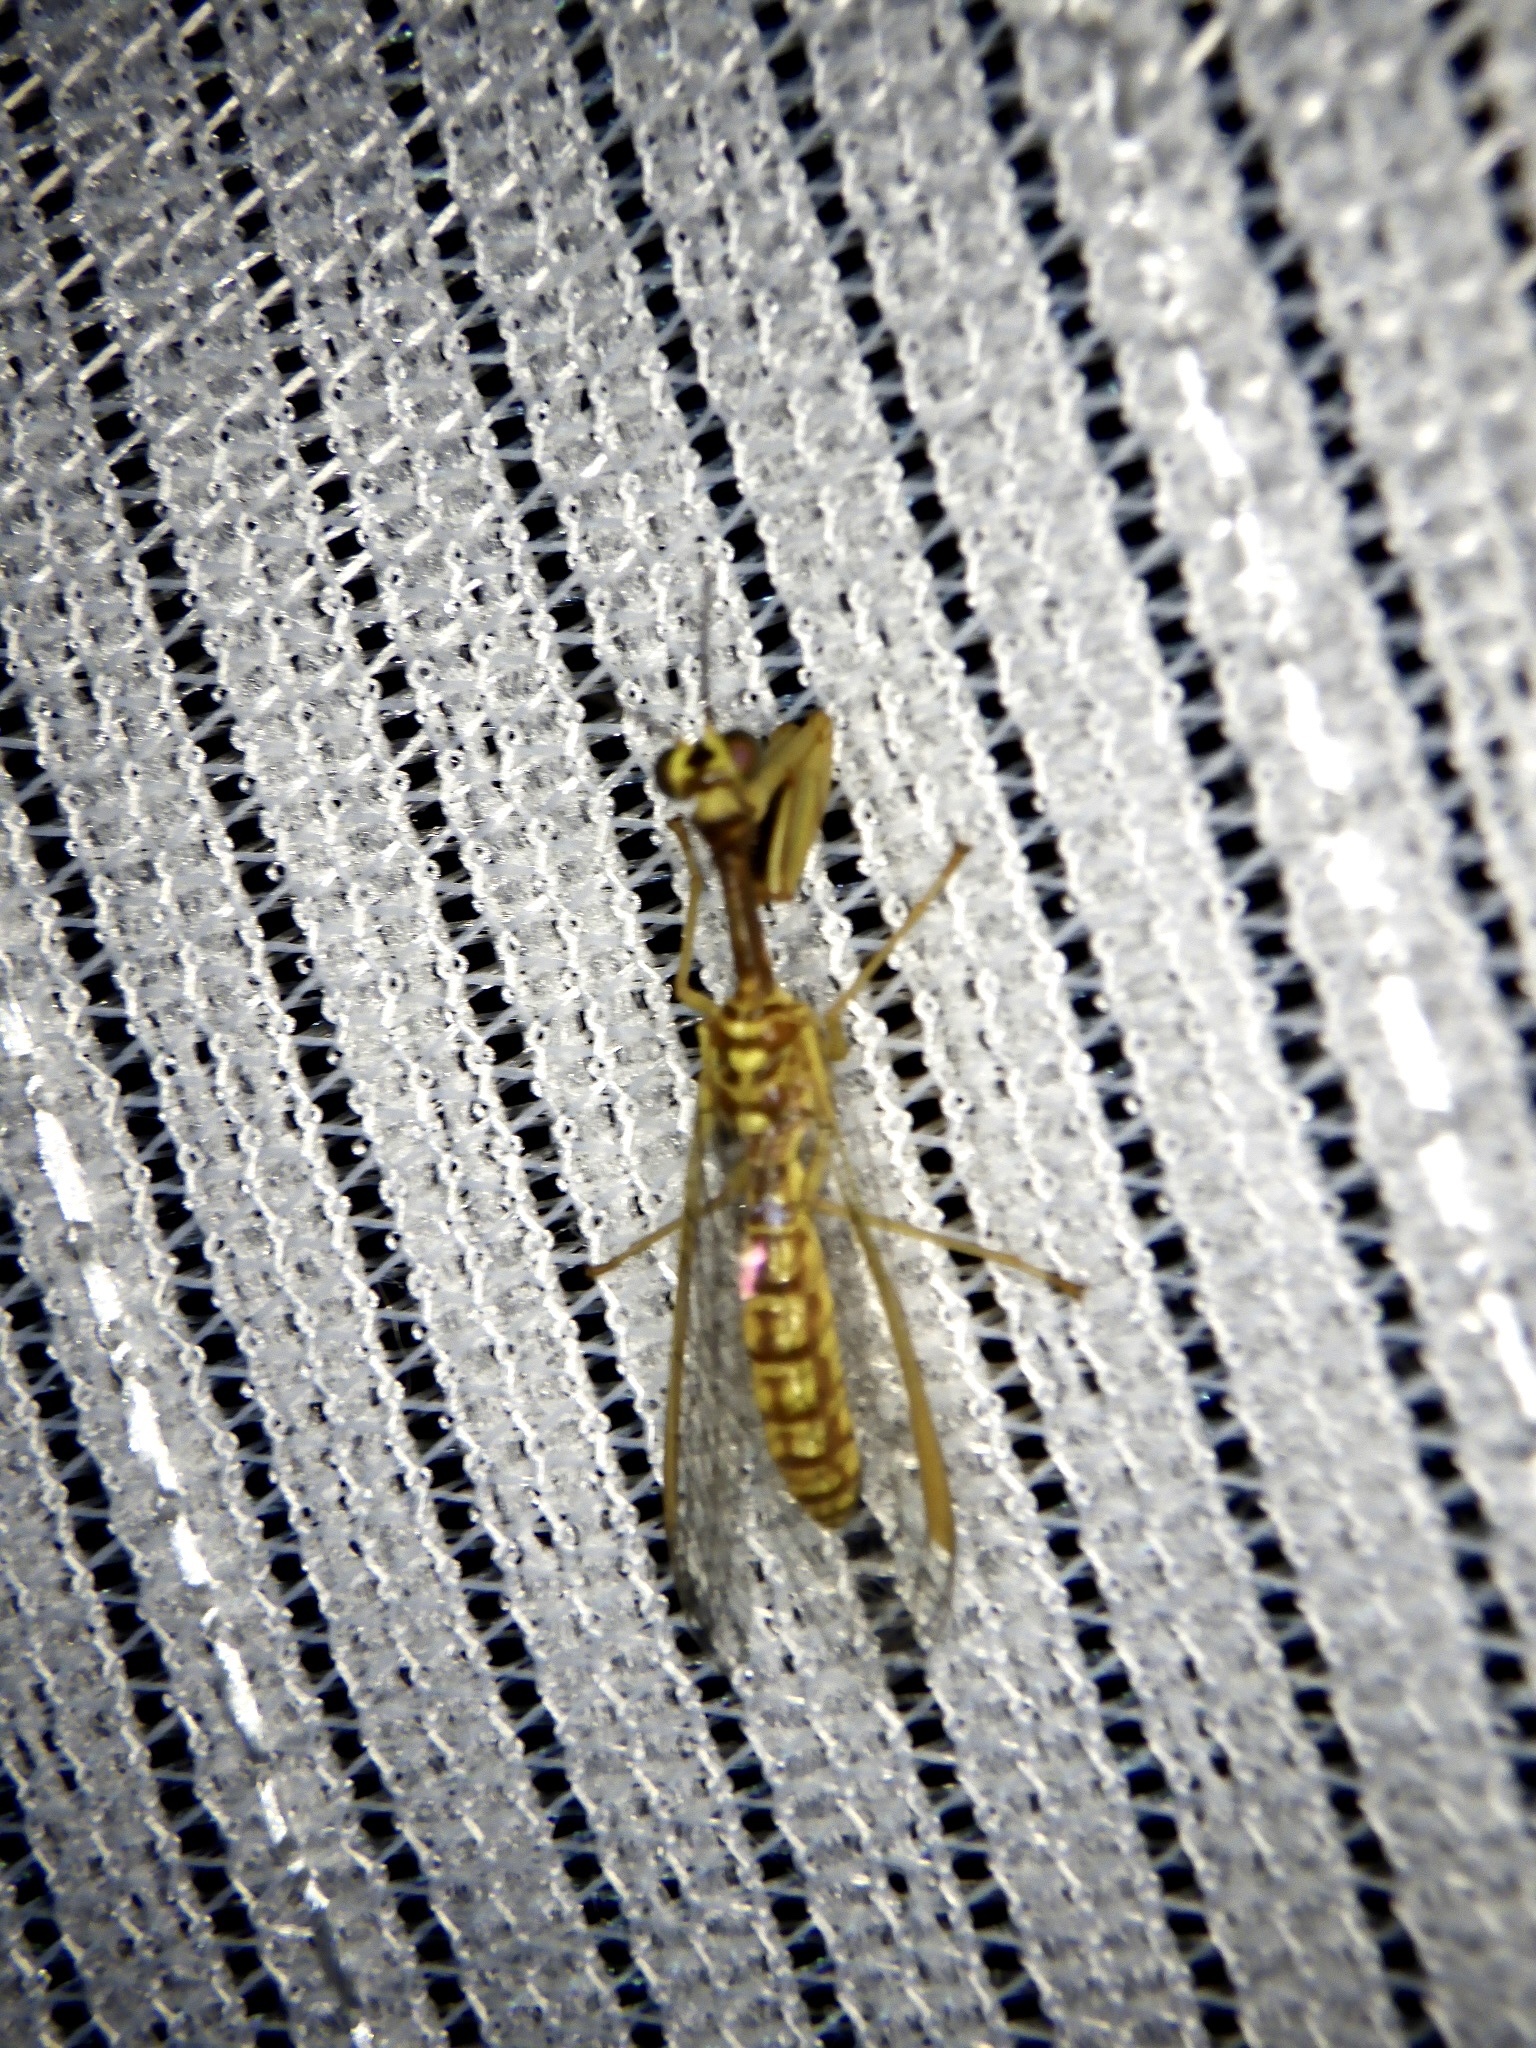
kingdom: Animalia
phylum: Arthropoda
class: Insecta
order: Neuroptera
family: Mantispidae
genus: Mantispa
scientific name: Mantispa japonica
